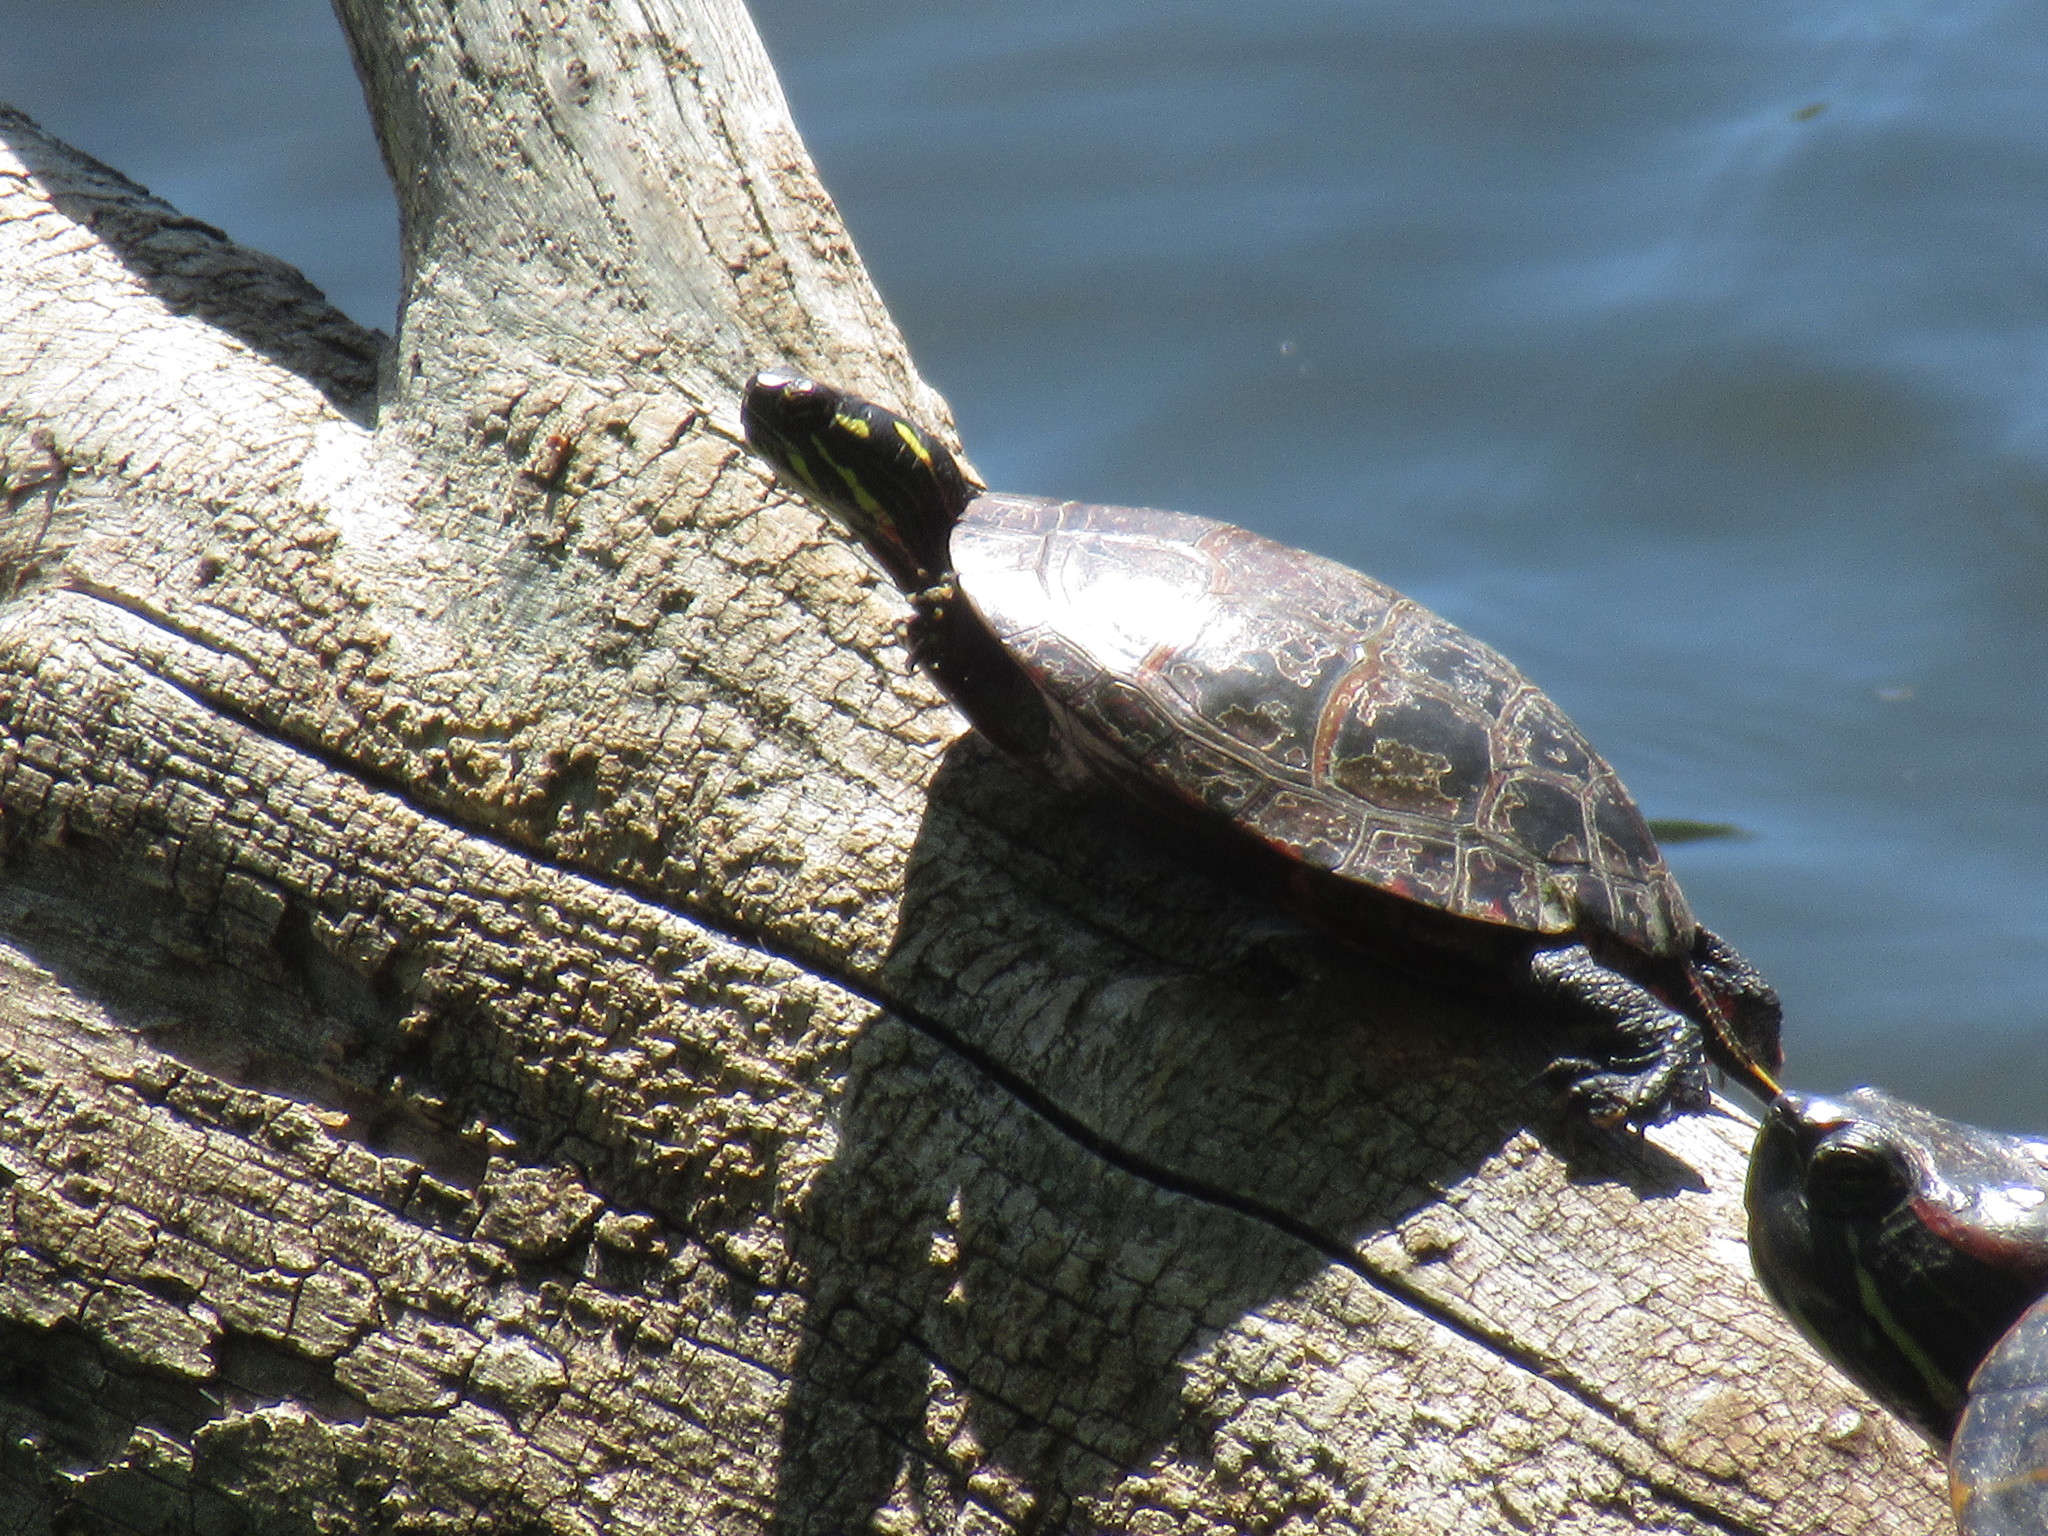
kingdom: Animalia
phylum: Chordata
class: Testudines
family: Emydidae
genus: Chrysemys
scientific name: Chrysemys picta
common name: Painted turtle
